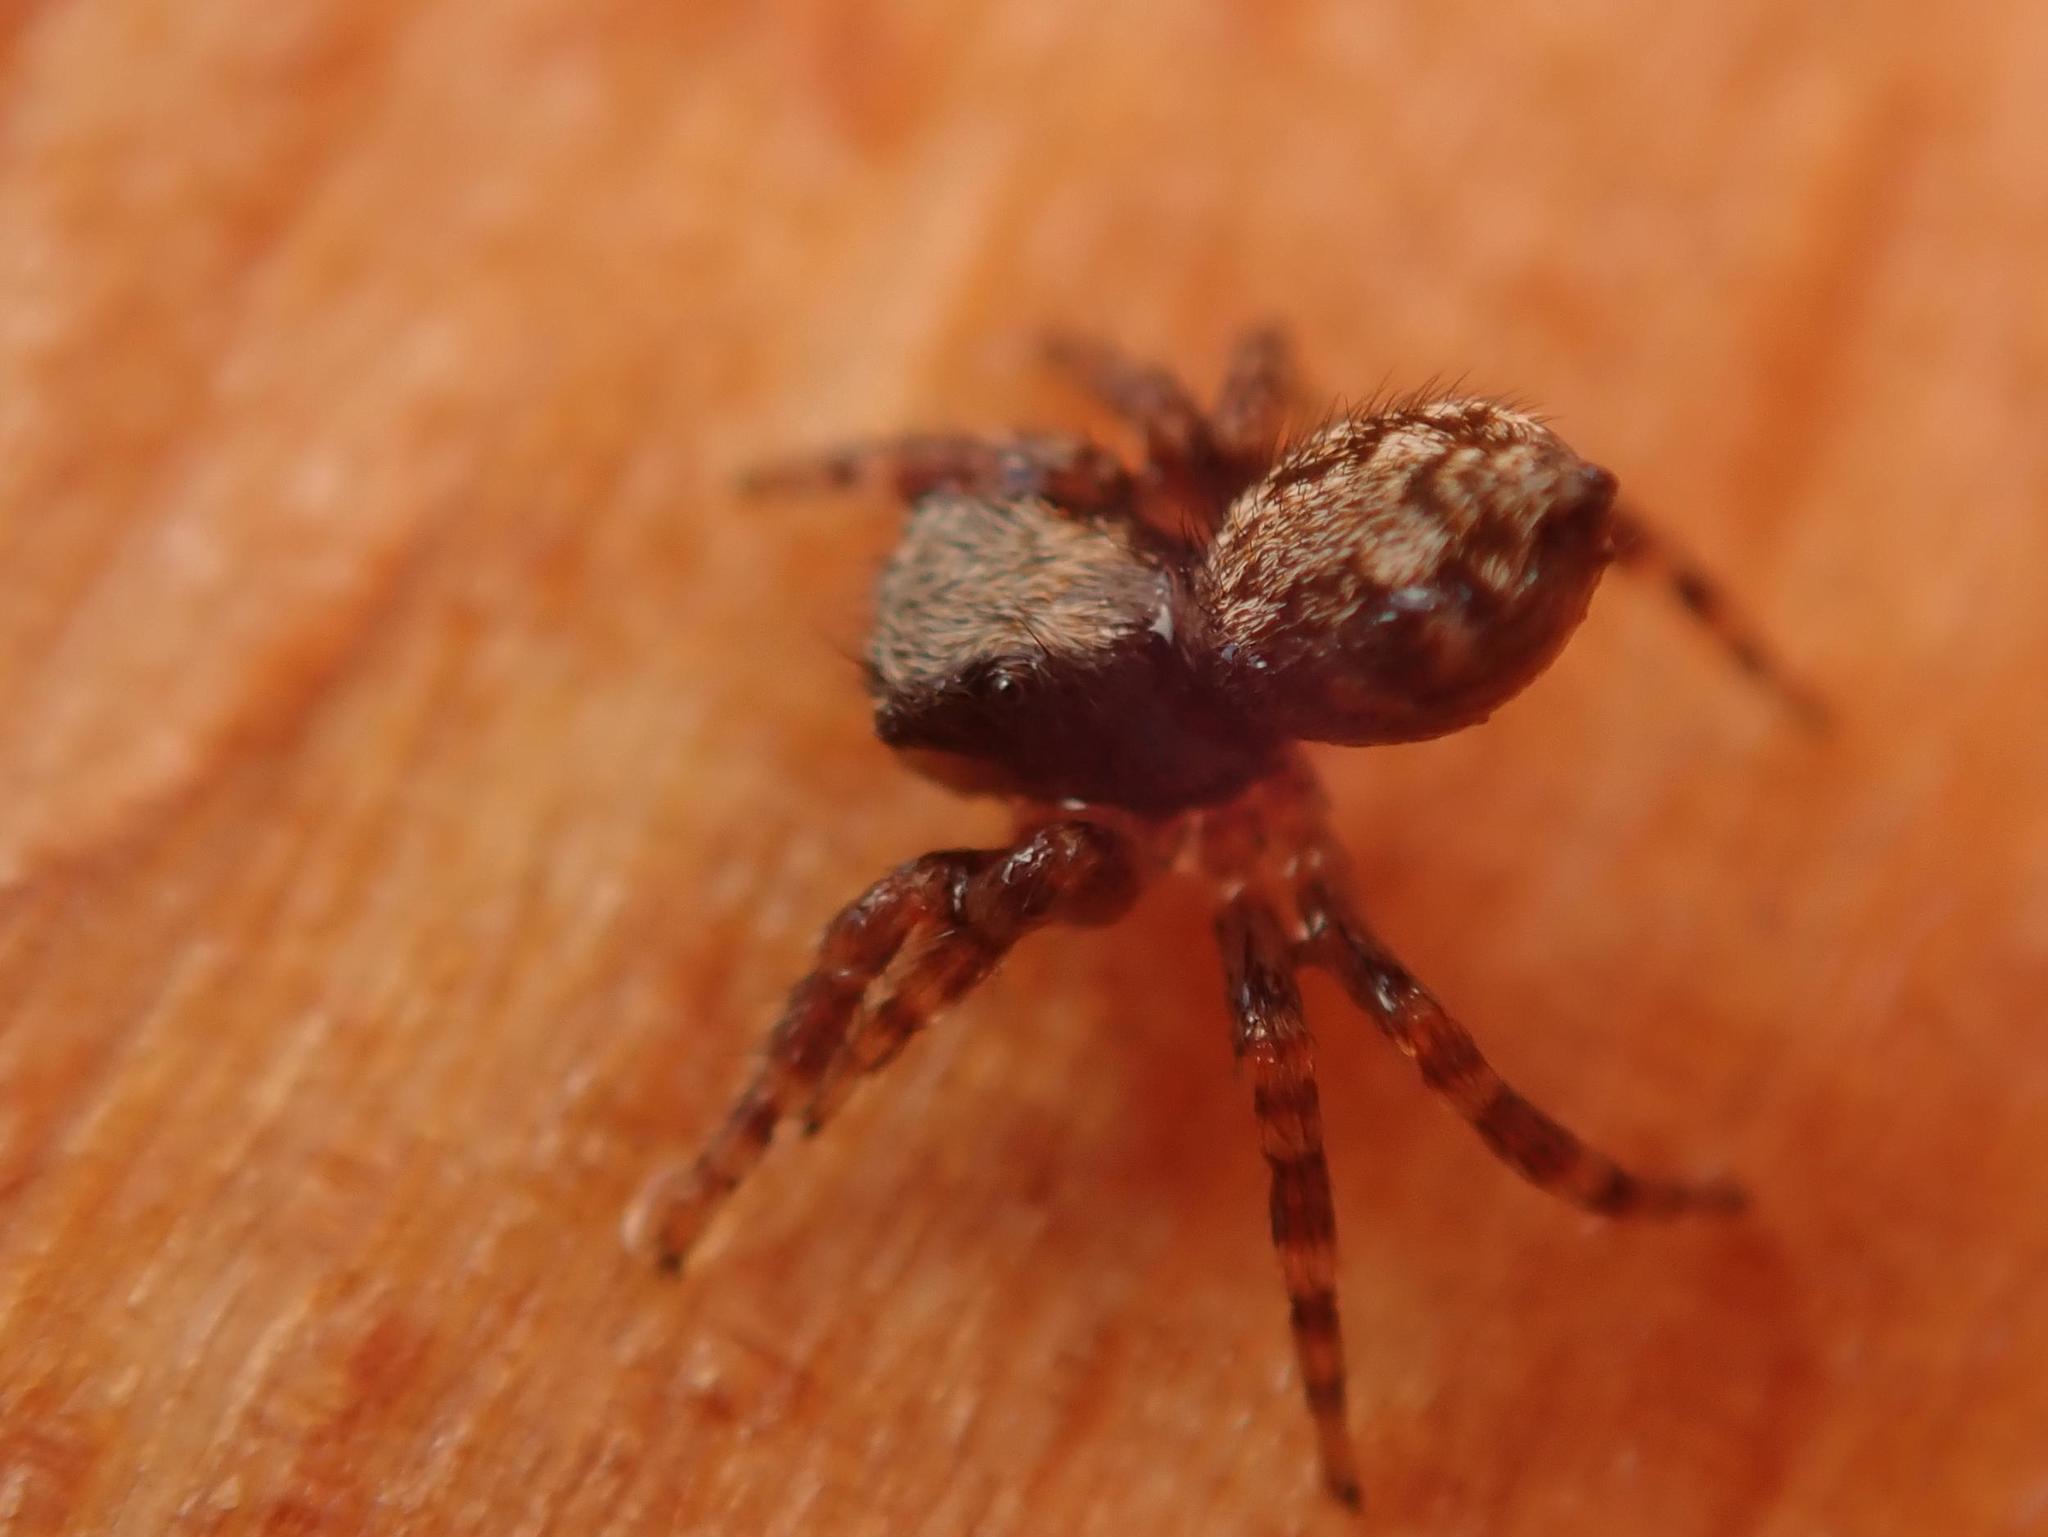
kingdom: Animalia
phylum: Arthropoda
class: Arachnida
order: Araneae
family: Salticidae
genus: Pseudeuophrys
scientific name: Pseudeuophrys lanigera
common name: Jumping spider
